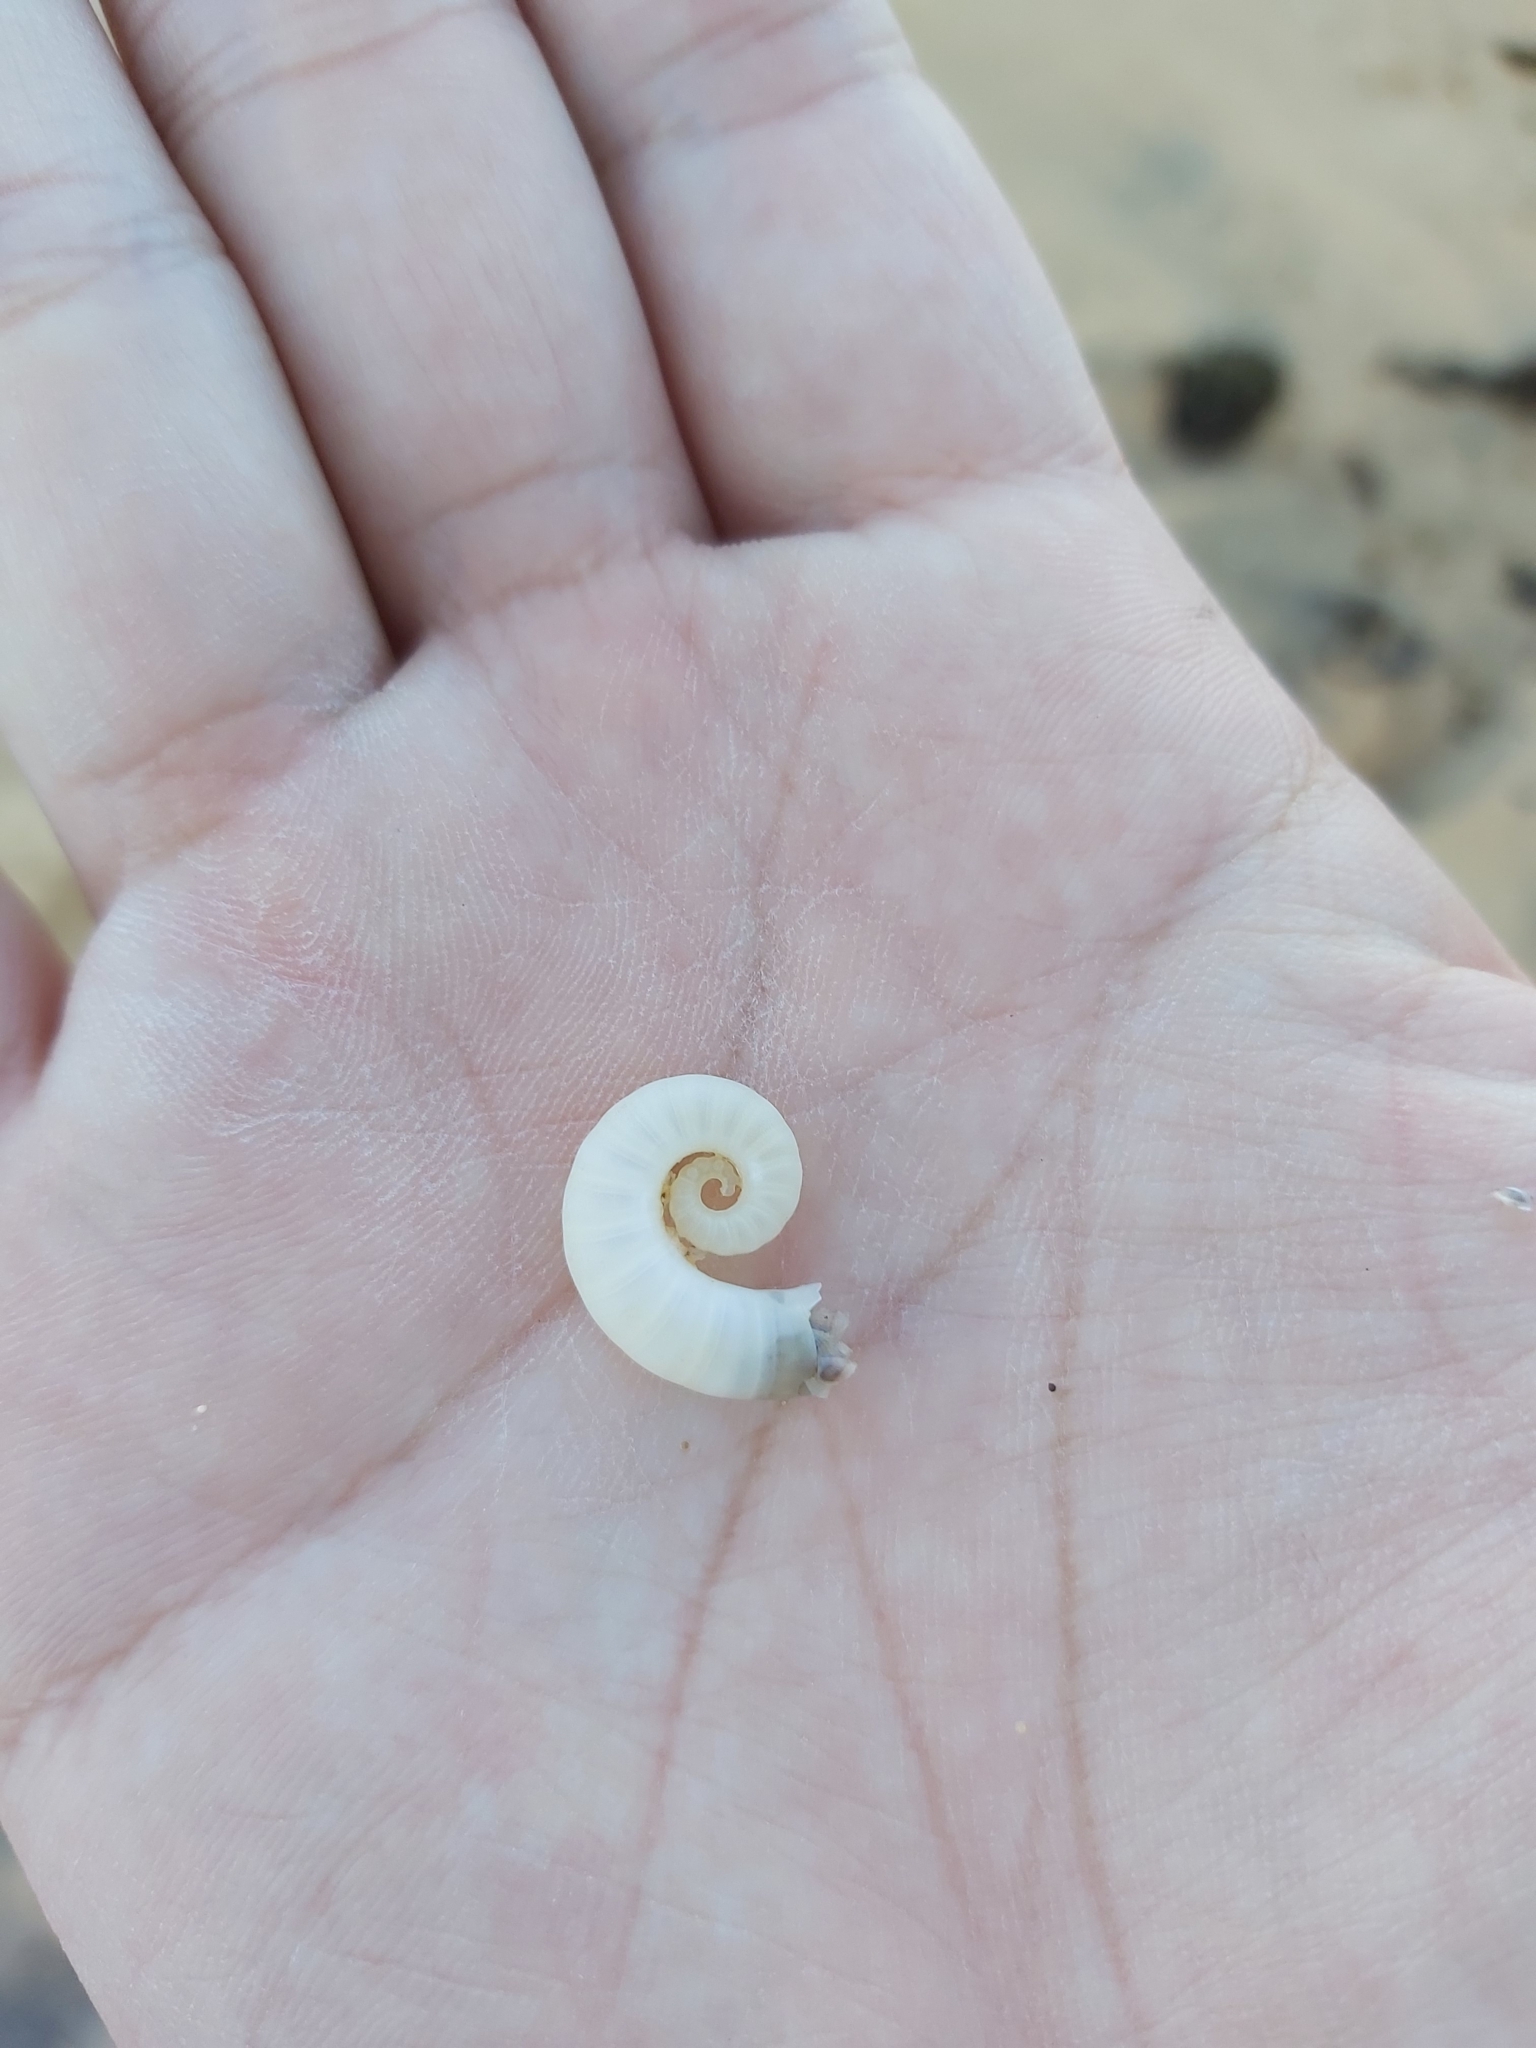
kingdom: Animalia
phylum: Mollusca
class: Cephalopoda
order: Spirulida
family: Spirulidae
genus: Spirula
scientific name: Spirula spirula
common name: Ram's horn squid
